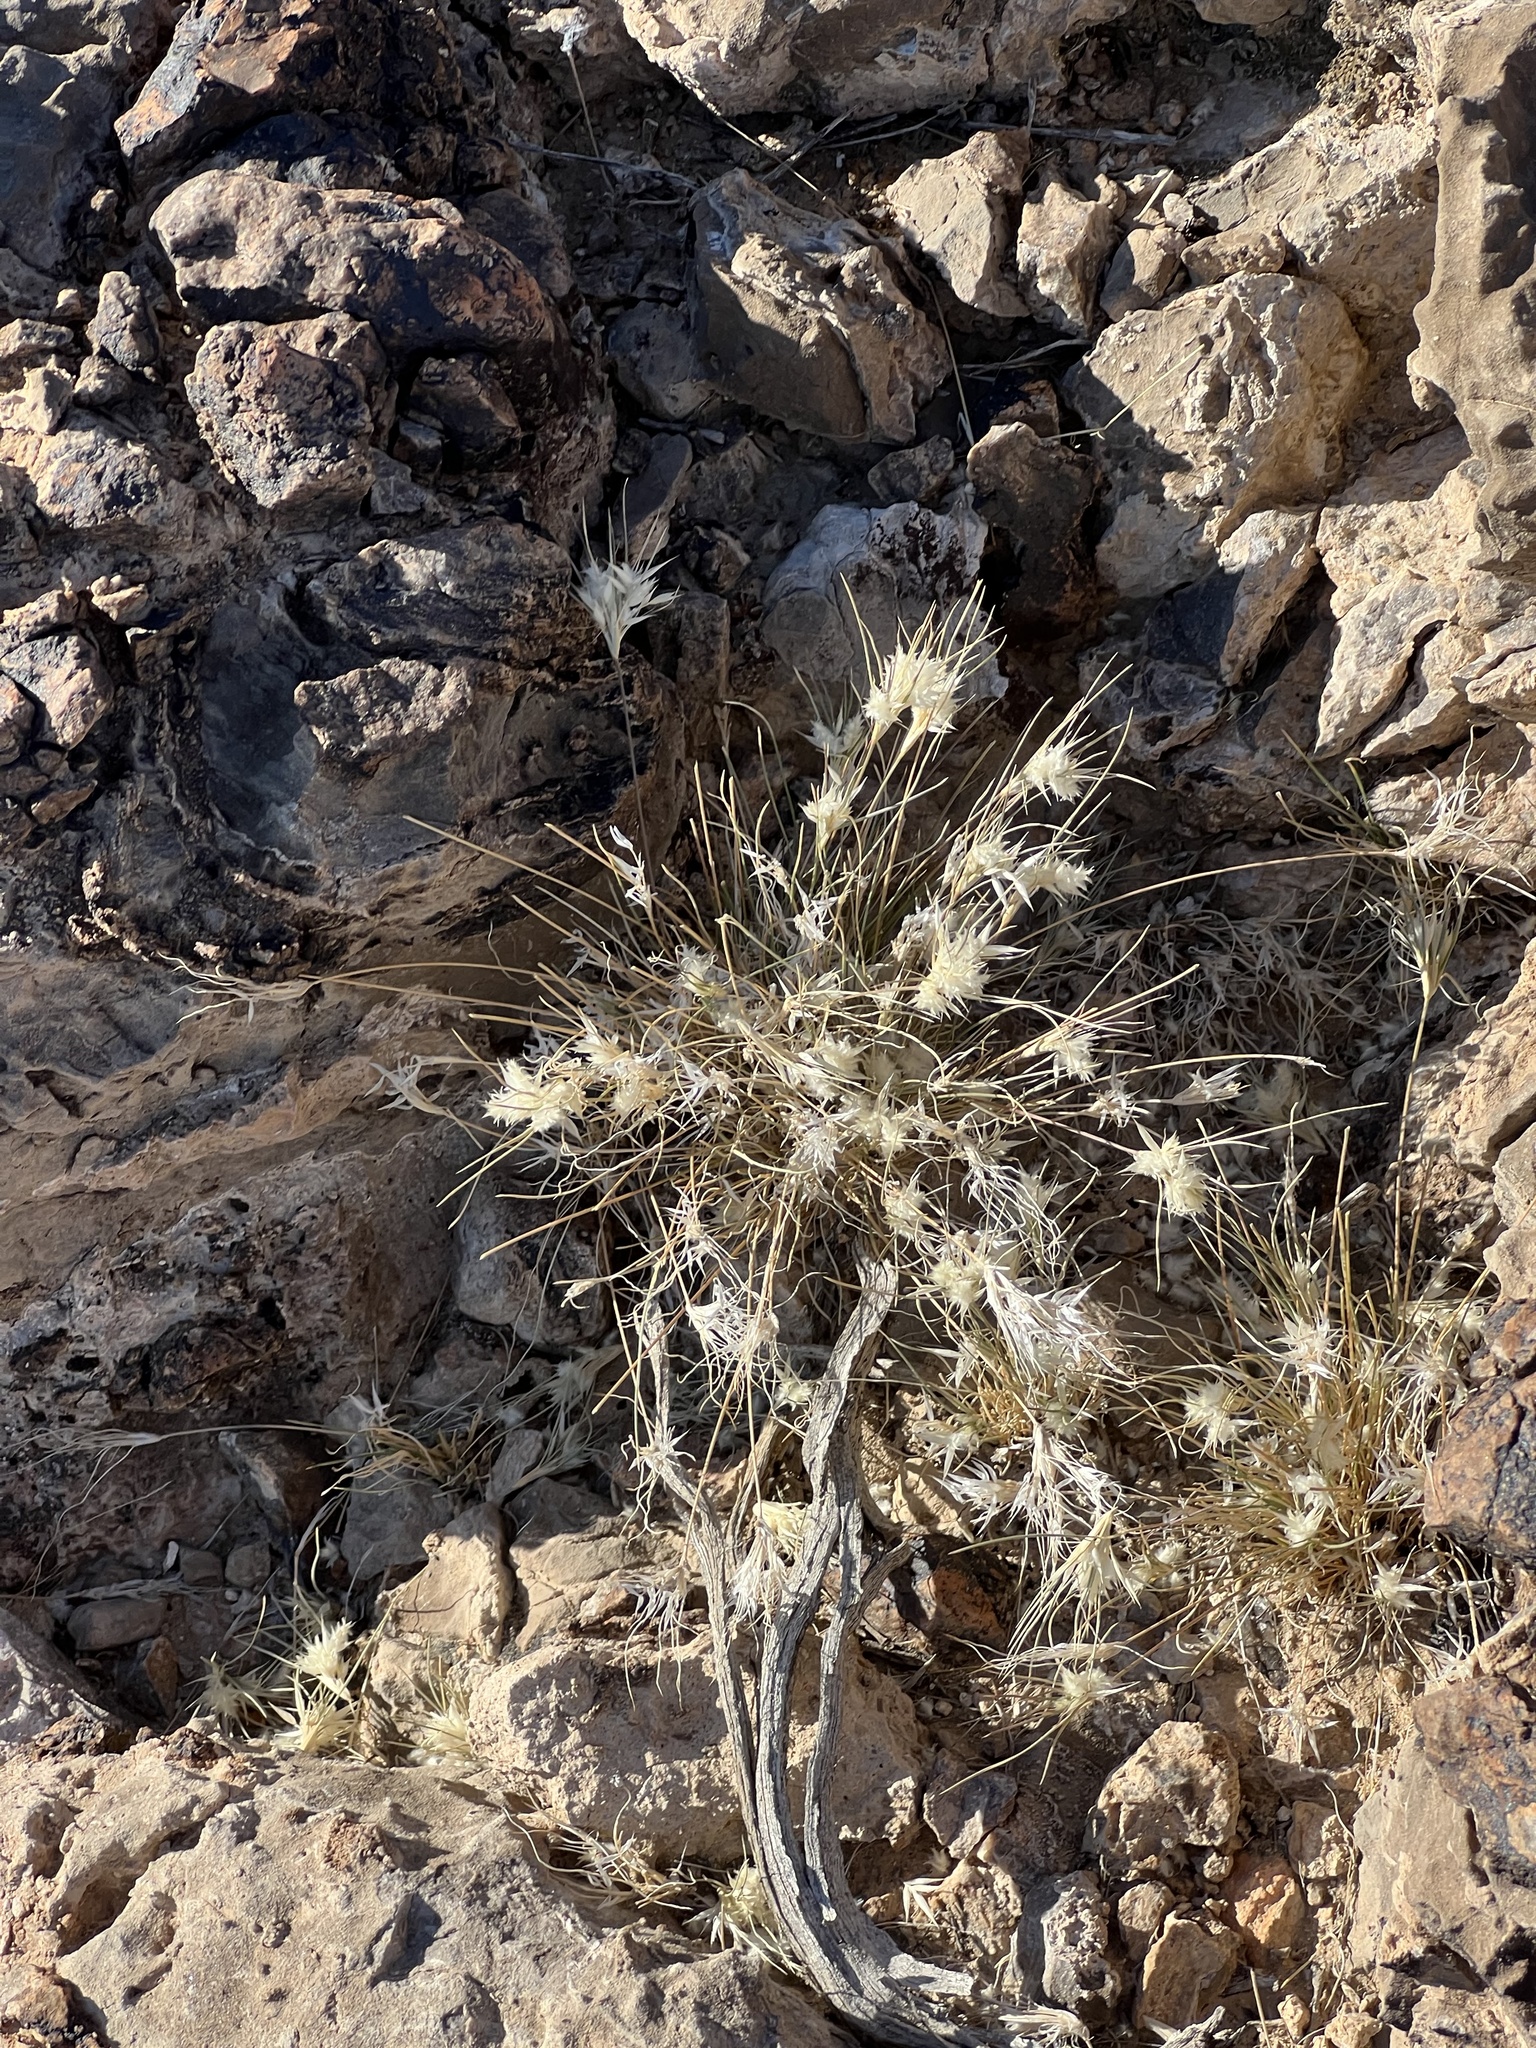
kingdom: Plantae
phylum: Tracheophyta
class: Liliopsida
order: Poales
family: Poaceae
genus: Dasyochloa
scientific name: Dasyochloa pulchella
